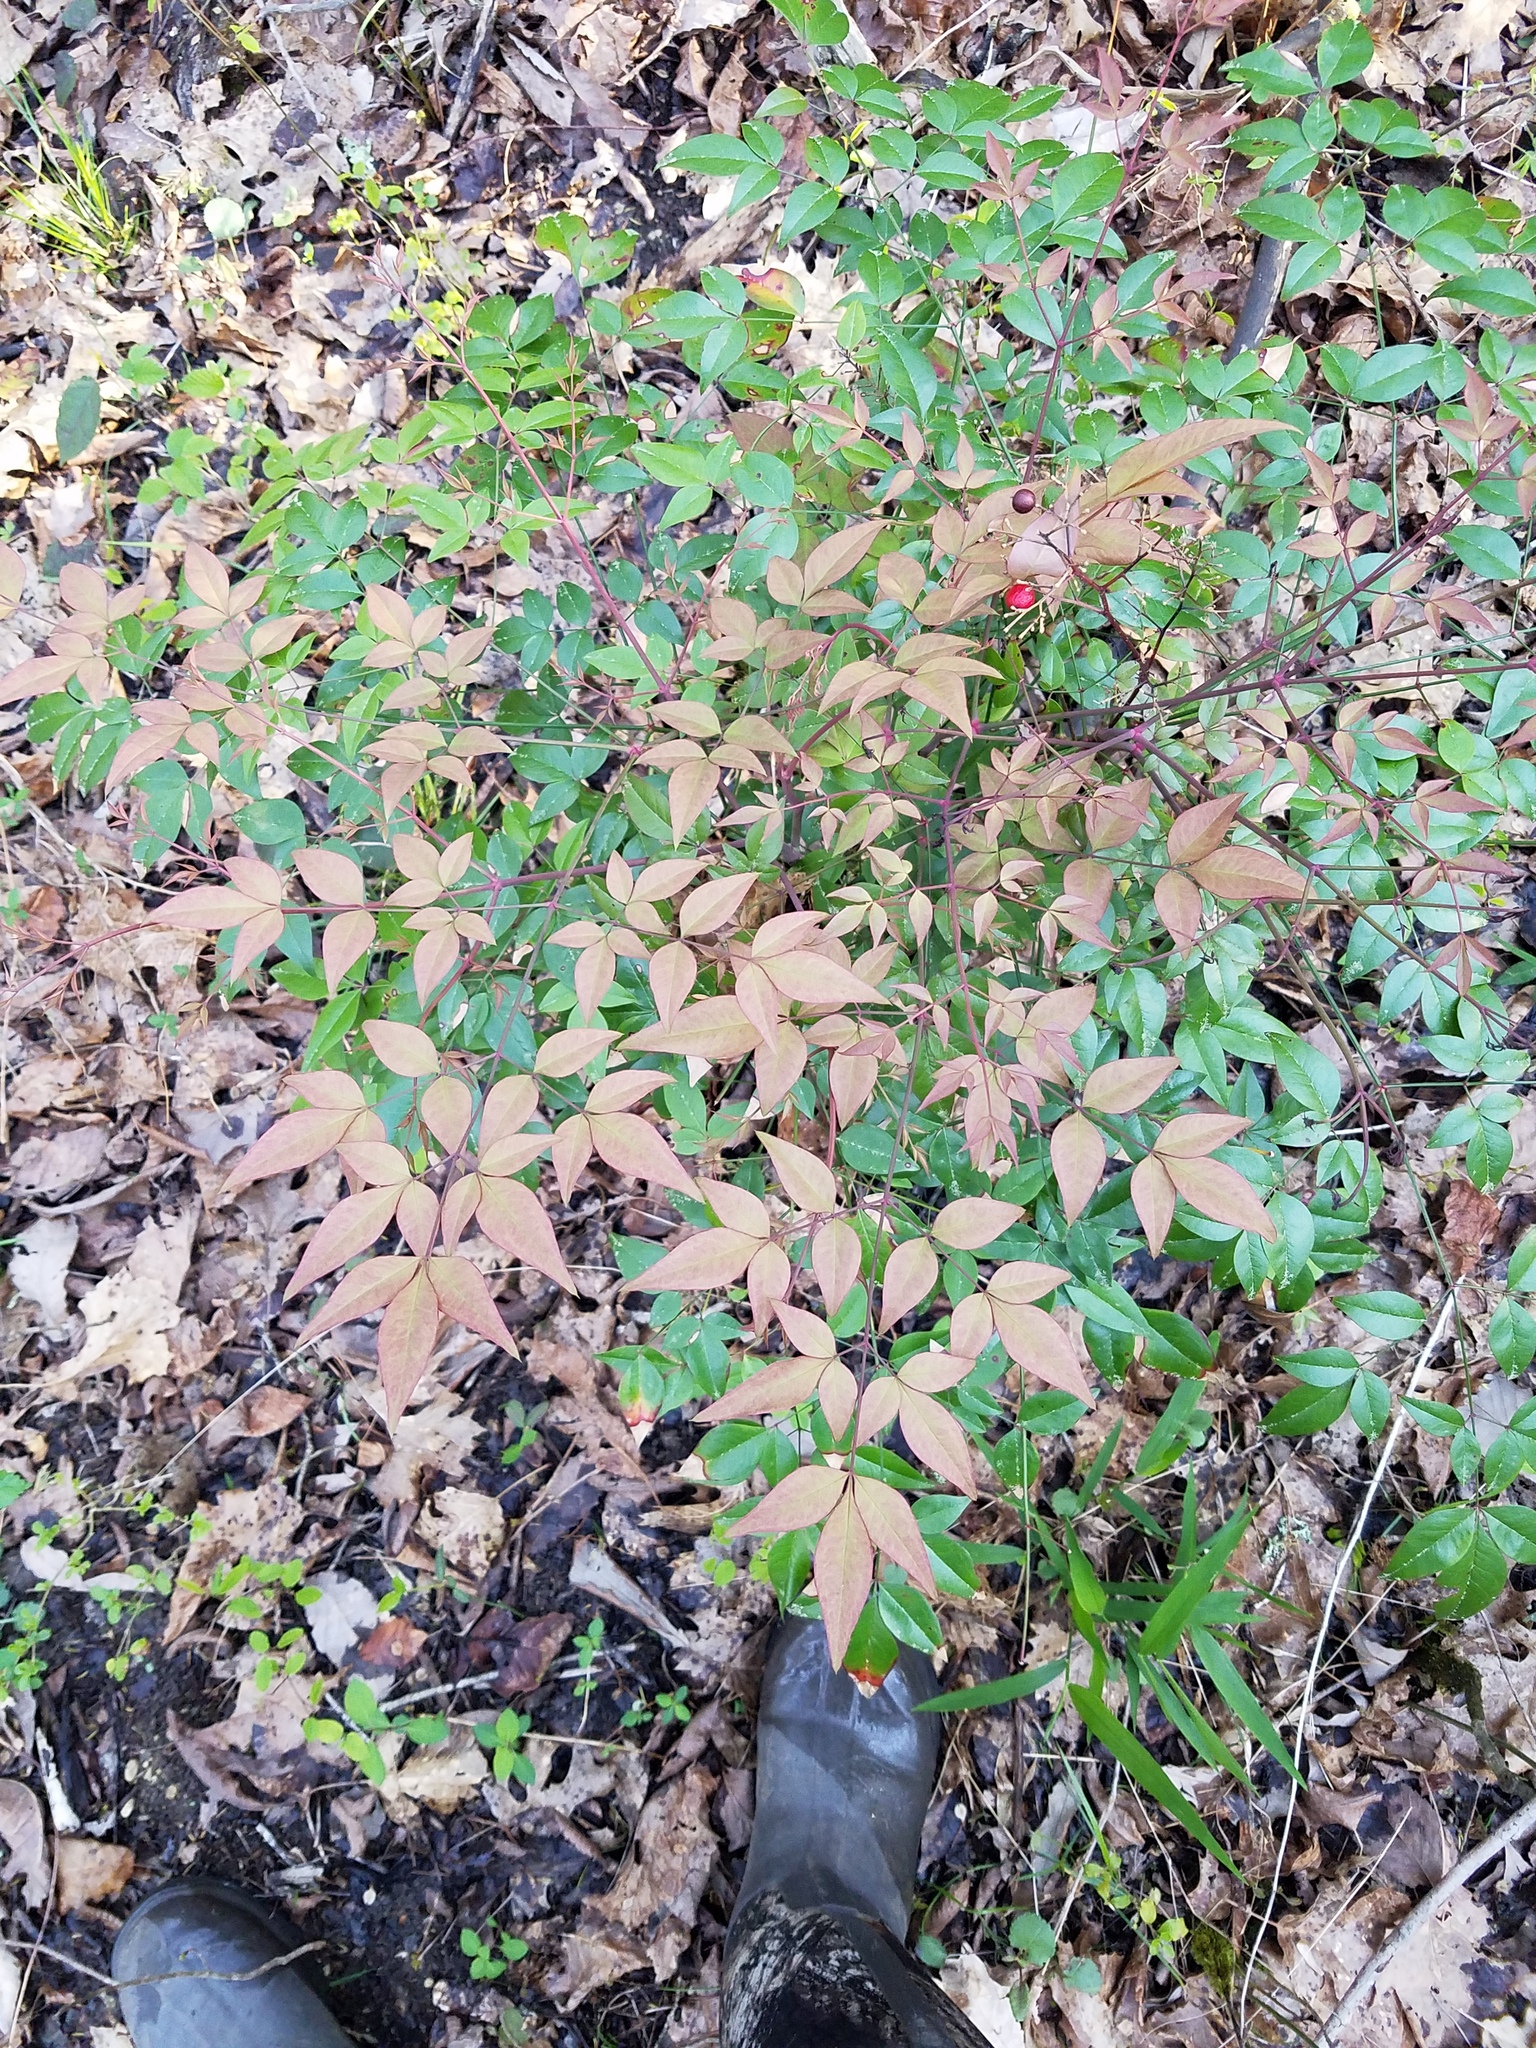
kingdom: Plantae
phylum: Tracheophyta
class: Magnoliopsida
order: Ranunculales
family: Berberidaceae
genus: Nandina
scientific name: Nandina domestica
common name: Sacred bamboo
